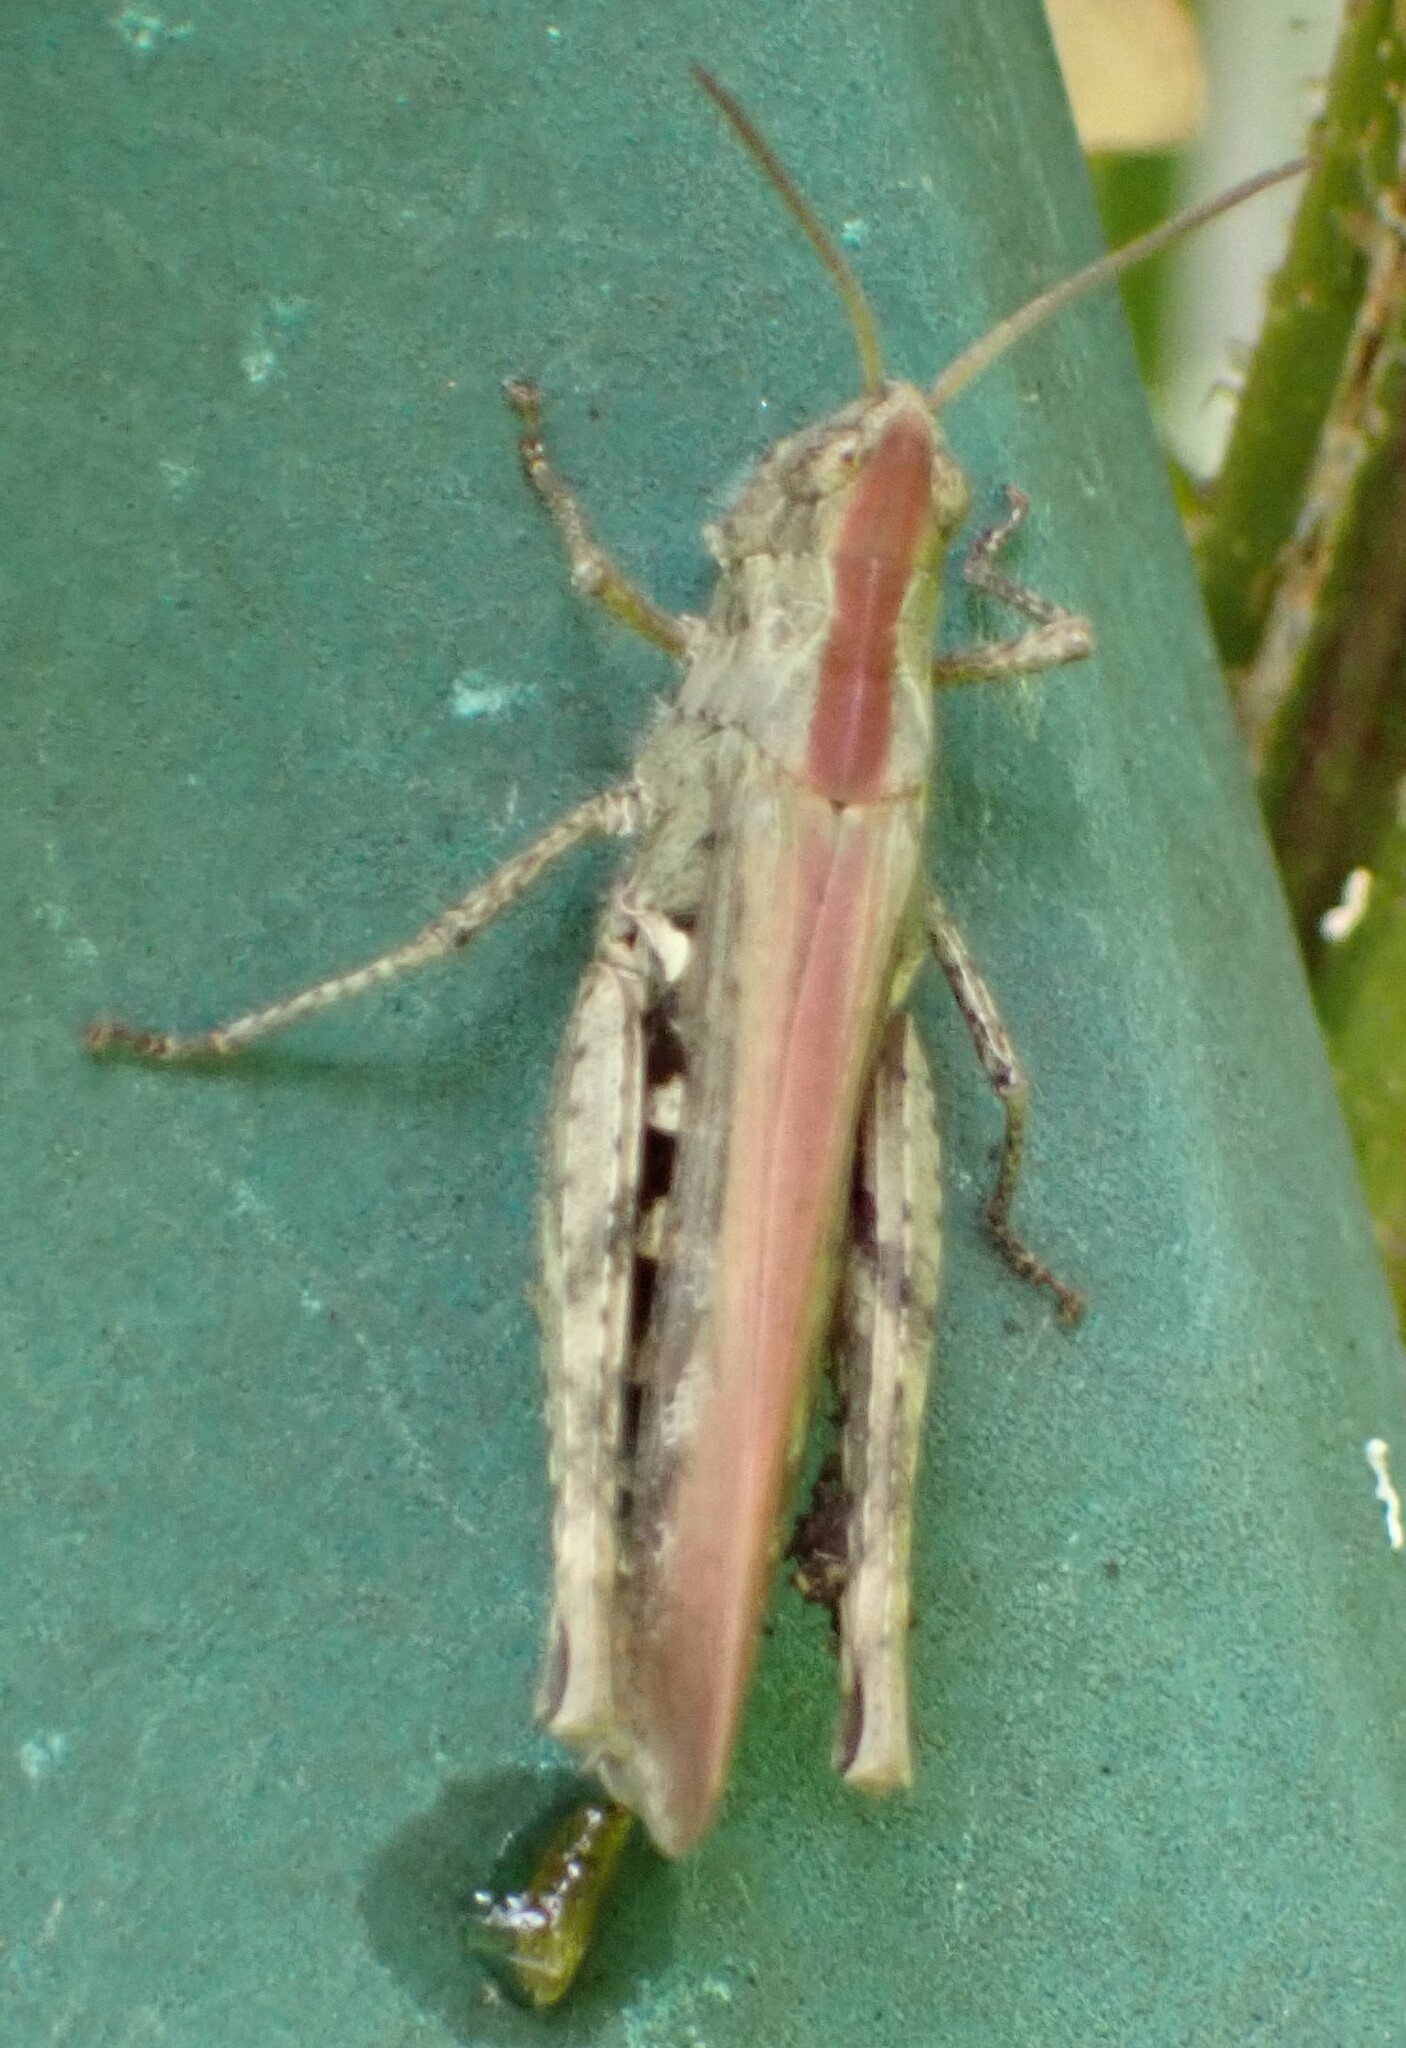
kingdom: Animalia
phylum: Arthropoda
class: Insecta
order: Orthoptera
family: Acrididae
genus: Chorthippus
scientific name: Chorthippus brunneus
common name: Field grasshopper
